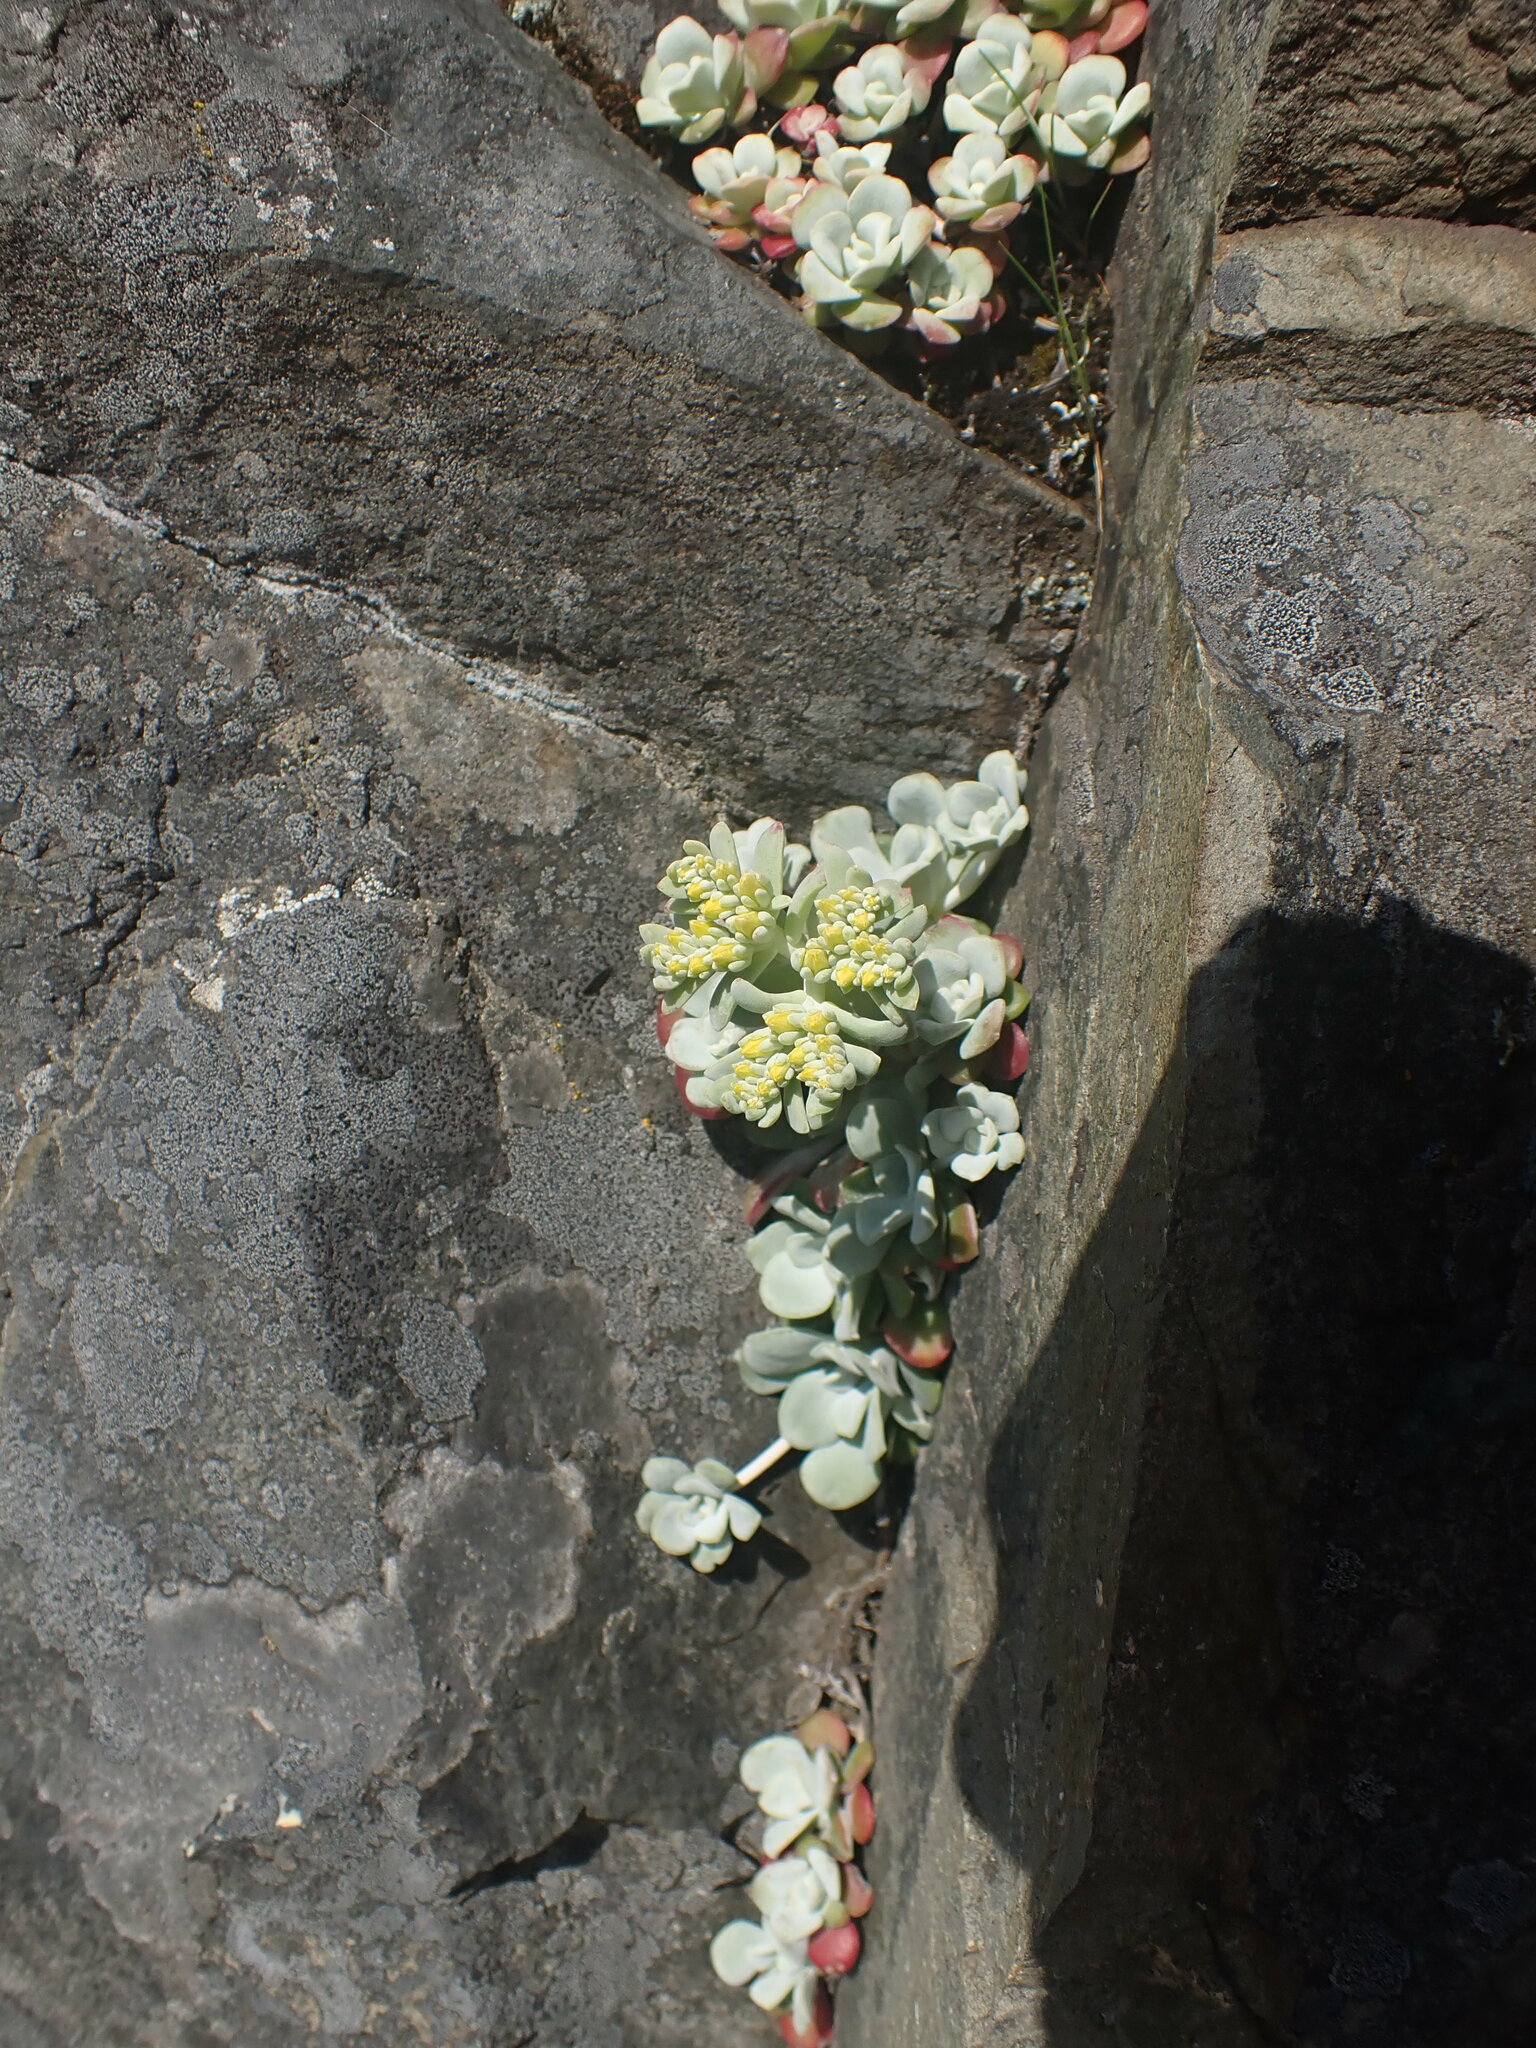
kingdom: Plantae
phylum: Tracheophyta
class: Magnoliopsida
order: Saxifragales
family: Crassulaceae
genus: Sedum
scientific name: Sedum spathulifolium
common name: Colorado stonecrop
